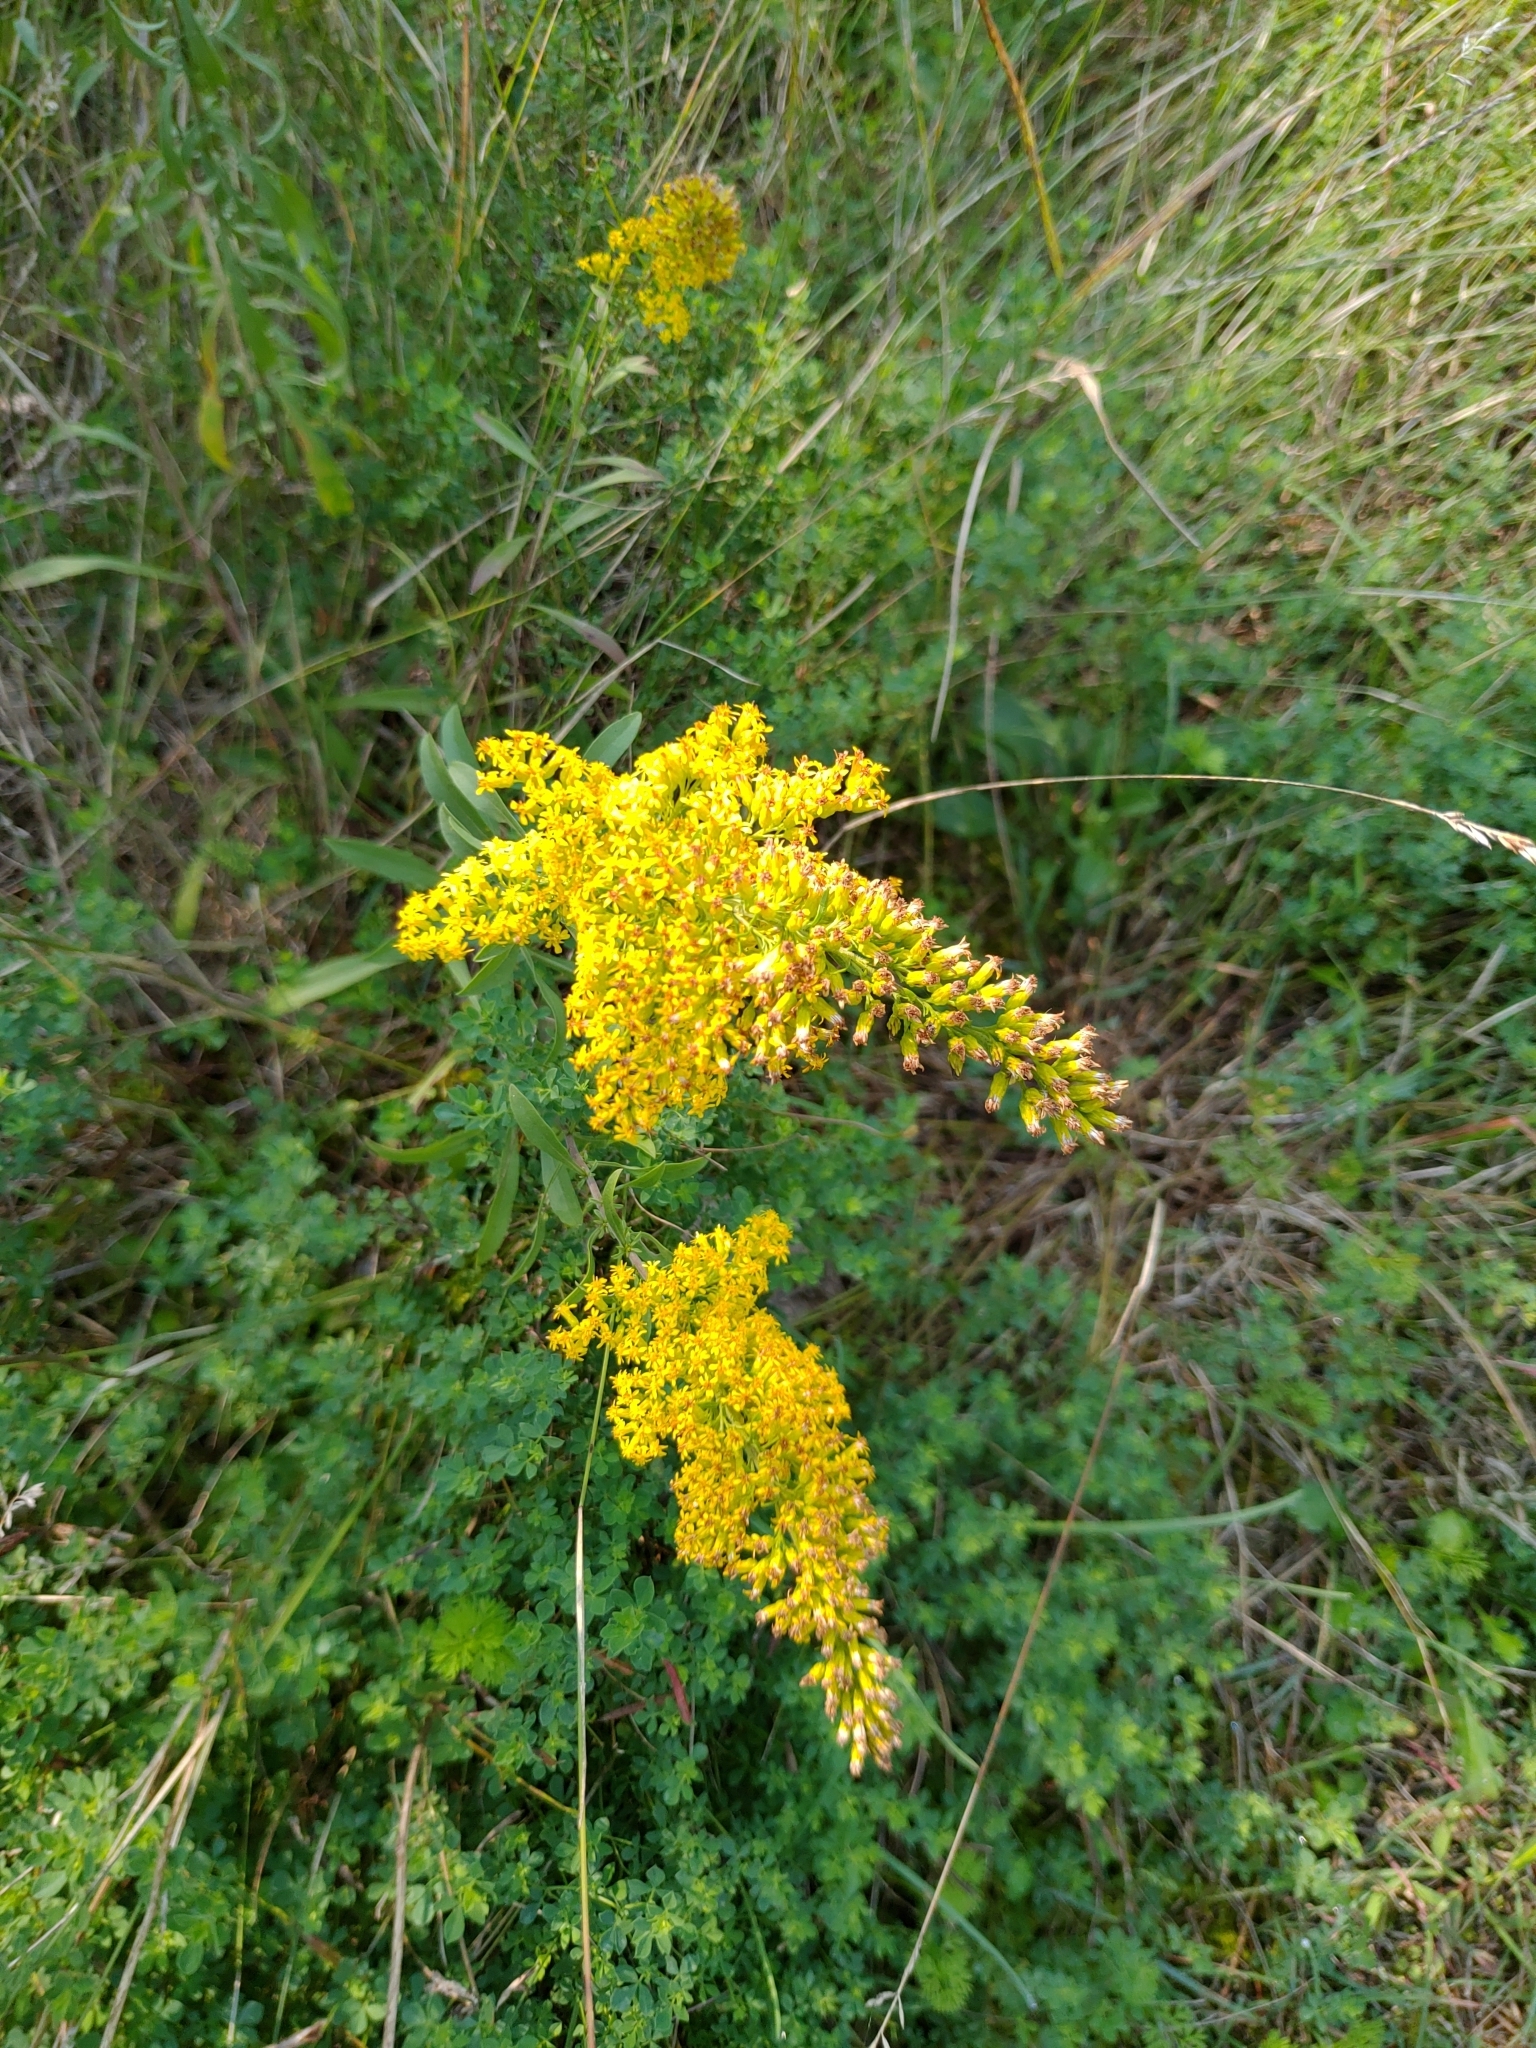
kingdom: Plantae
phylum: Tracheophyta
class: Magnoliopsida
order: Asterales
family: Asteraceae
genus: Solidago
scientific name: Solidago nemoralis
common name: Grey goldenrod
